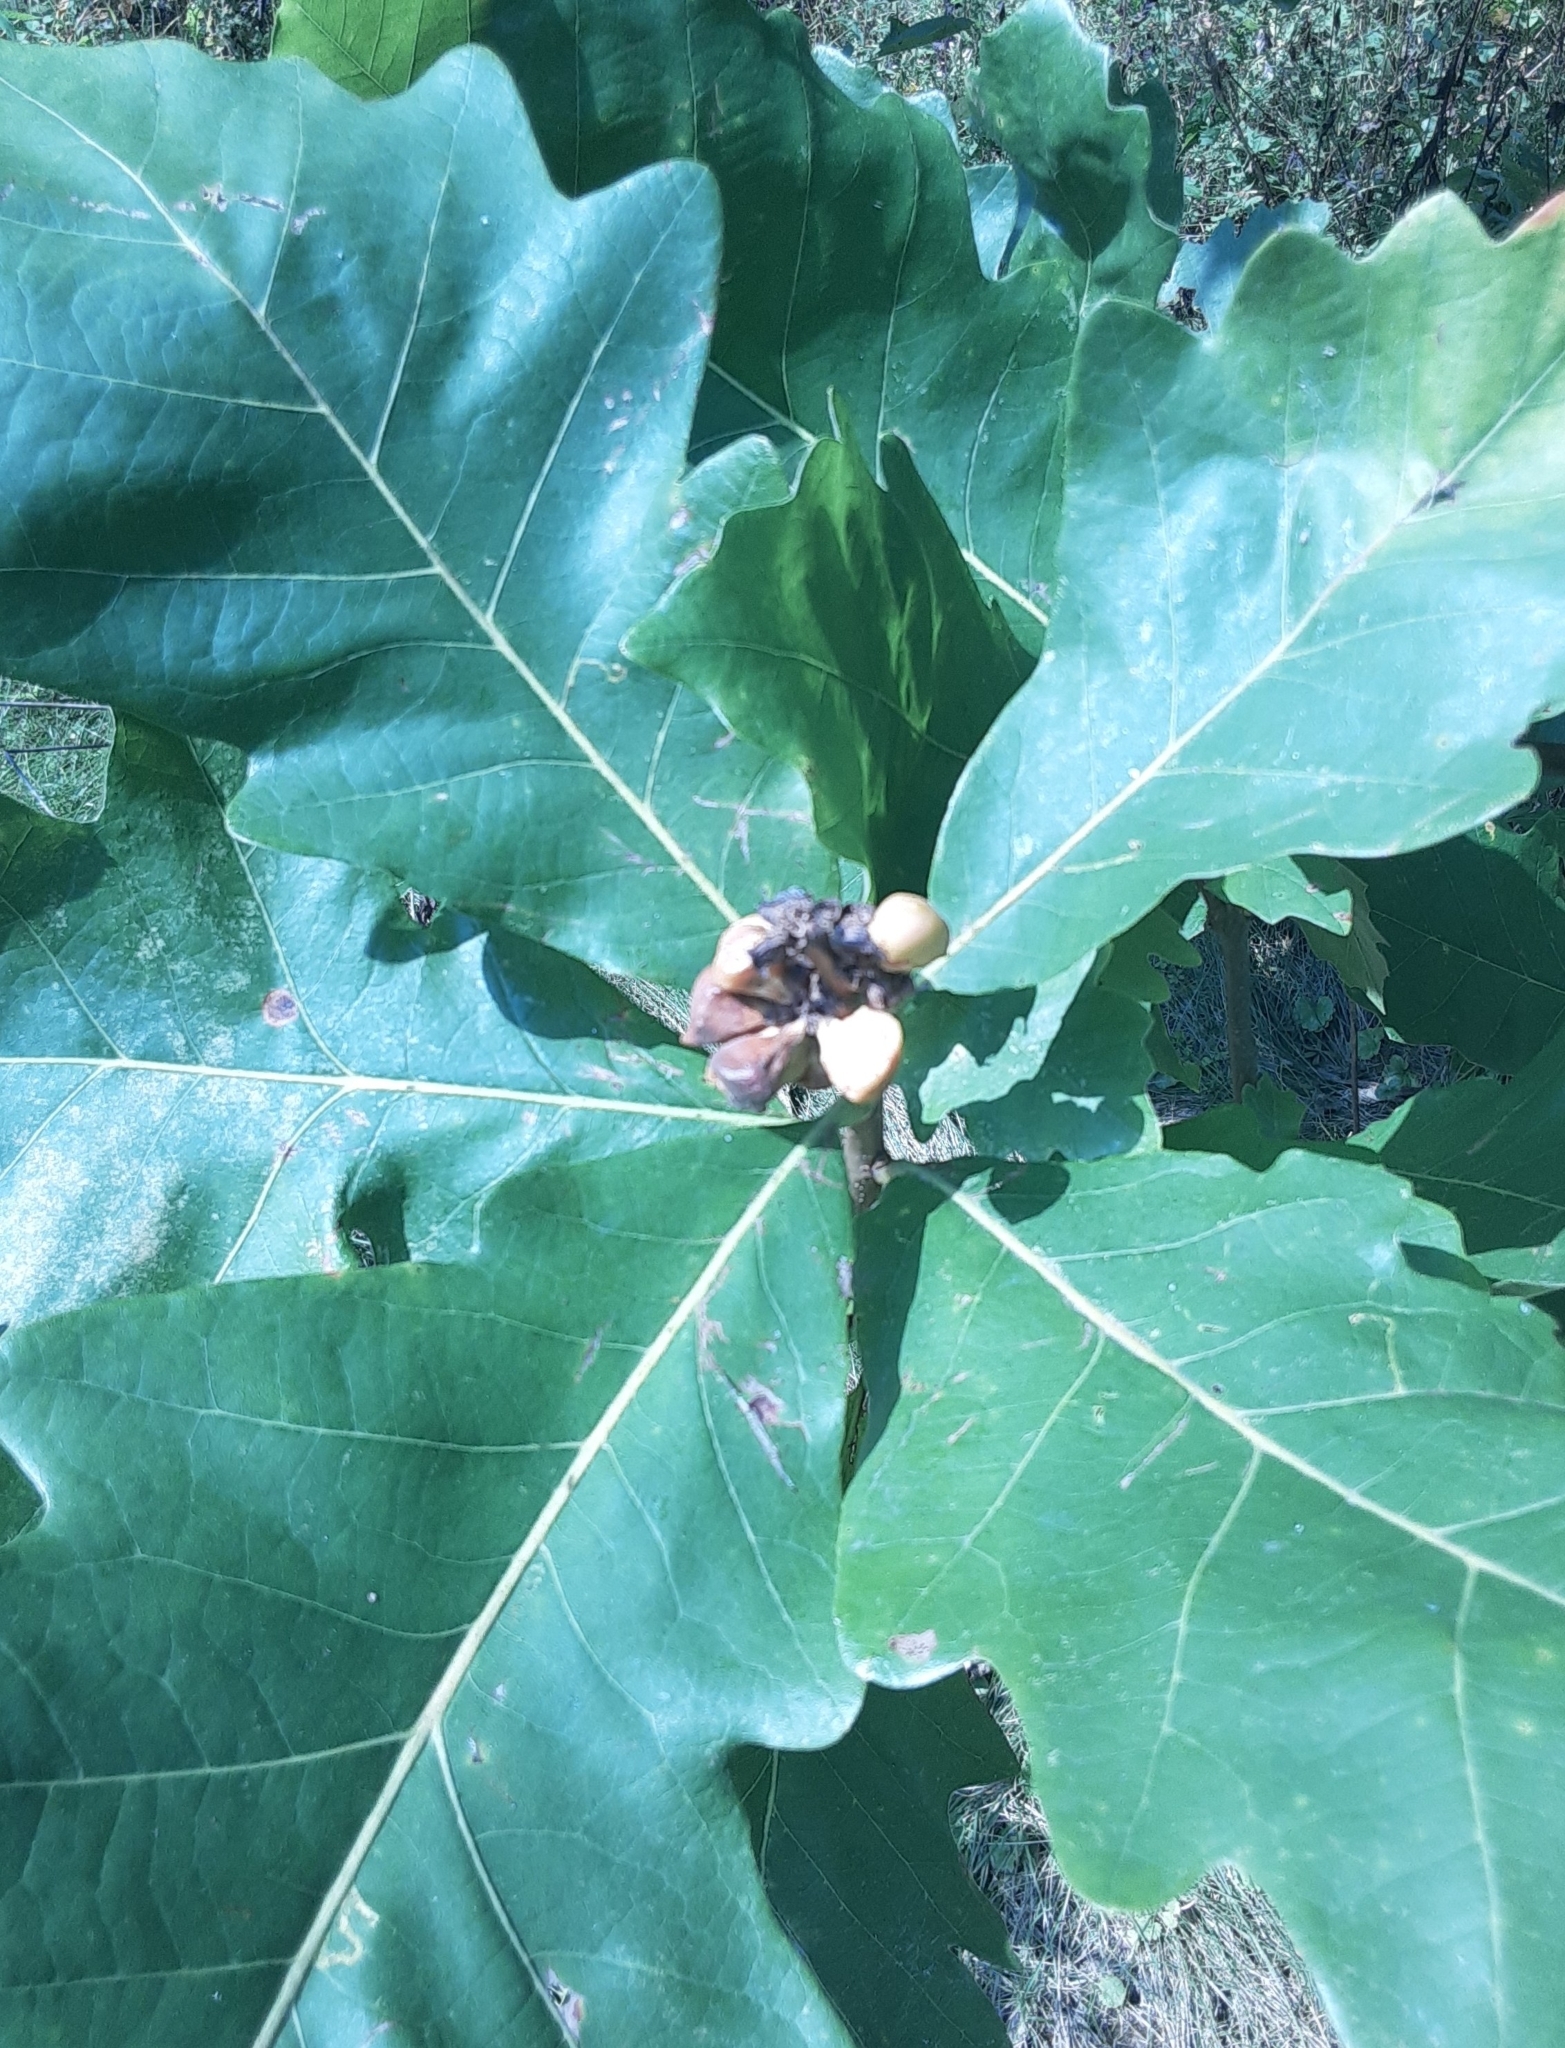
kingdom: Animalia
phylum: Arthropoda
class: Insecta
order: Hymenoptera
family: Cynipidae
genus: Andricus
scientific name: Andricus
